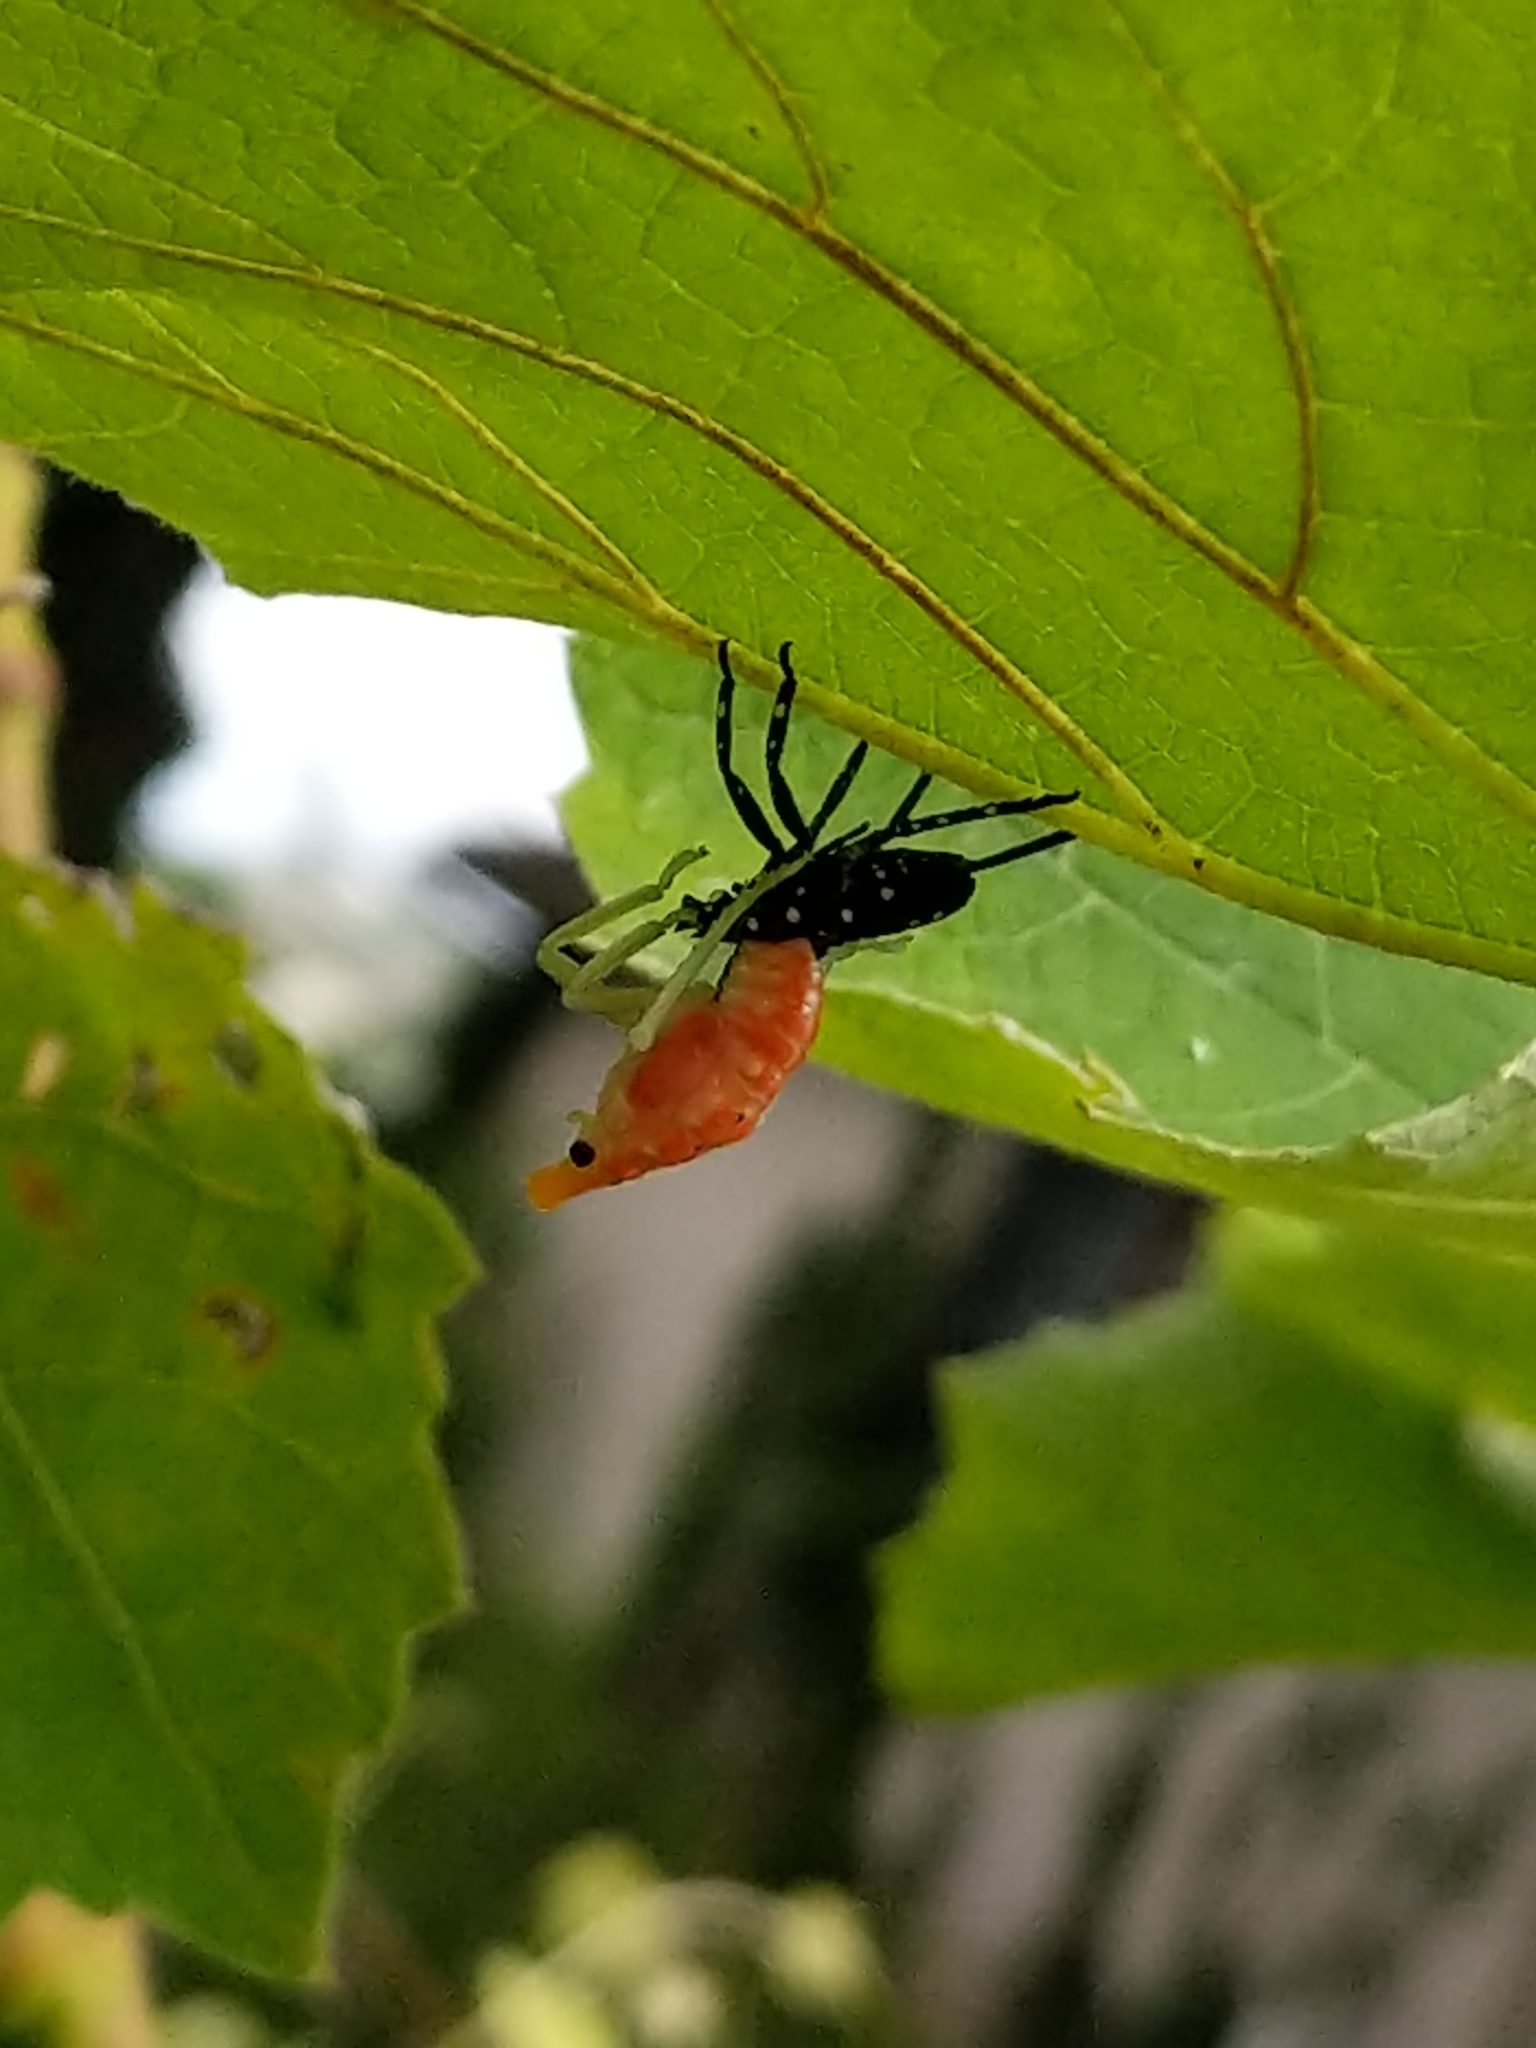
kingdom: Animalia
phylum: Arthropoda
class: Insecta
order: Hemiptera
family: Fulgoridae
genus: Lycorma
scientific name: Lycorma delicatula
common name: Spotted lanternfly
